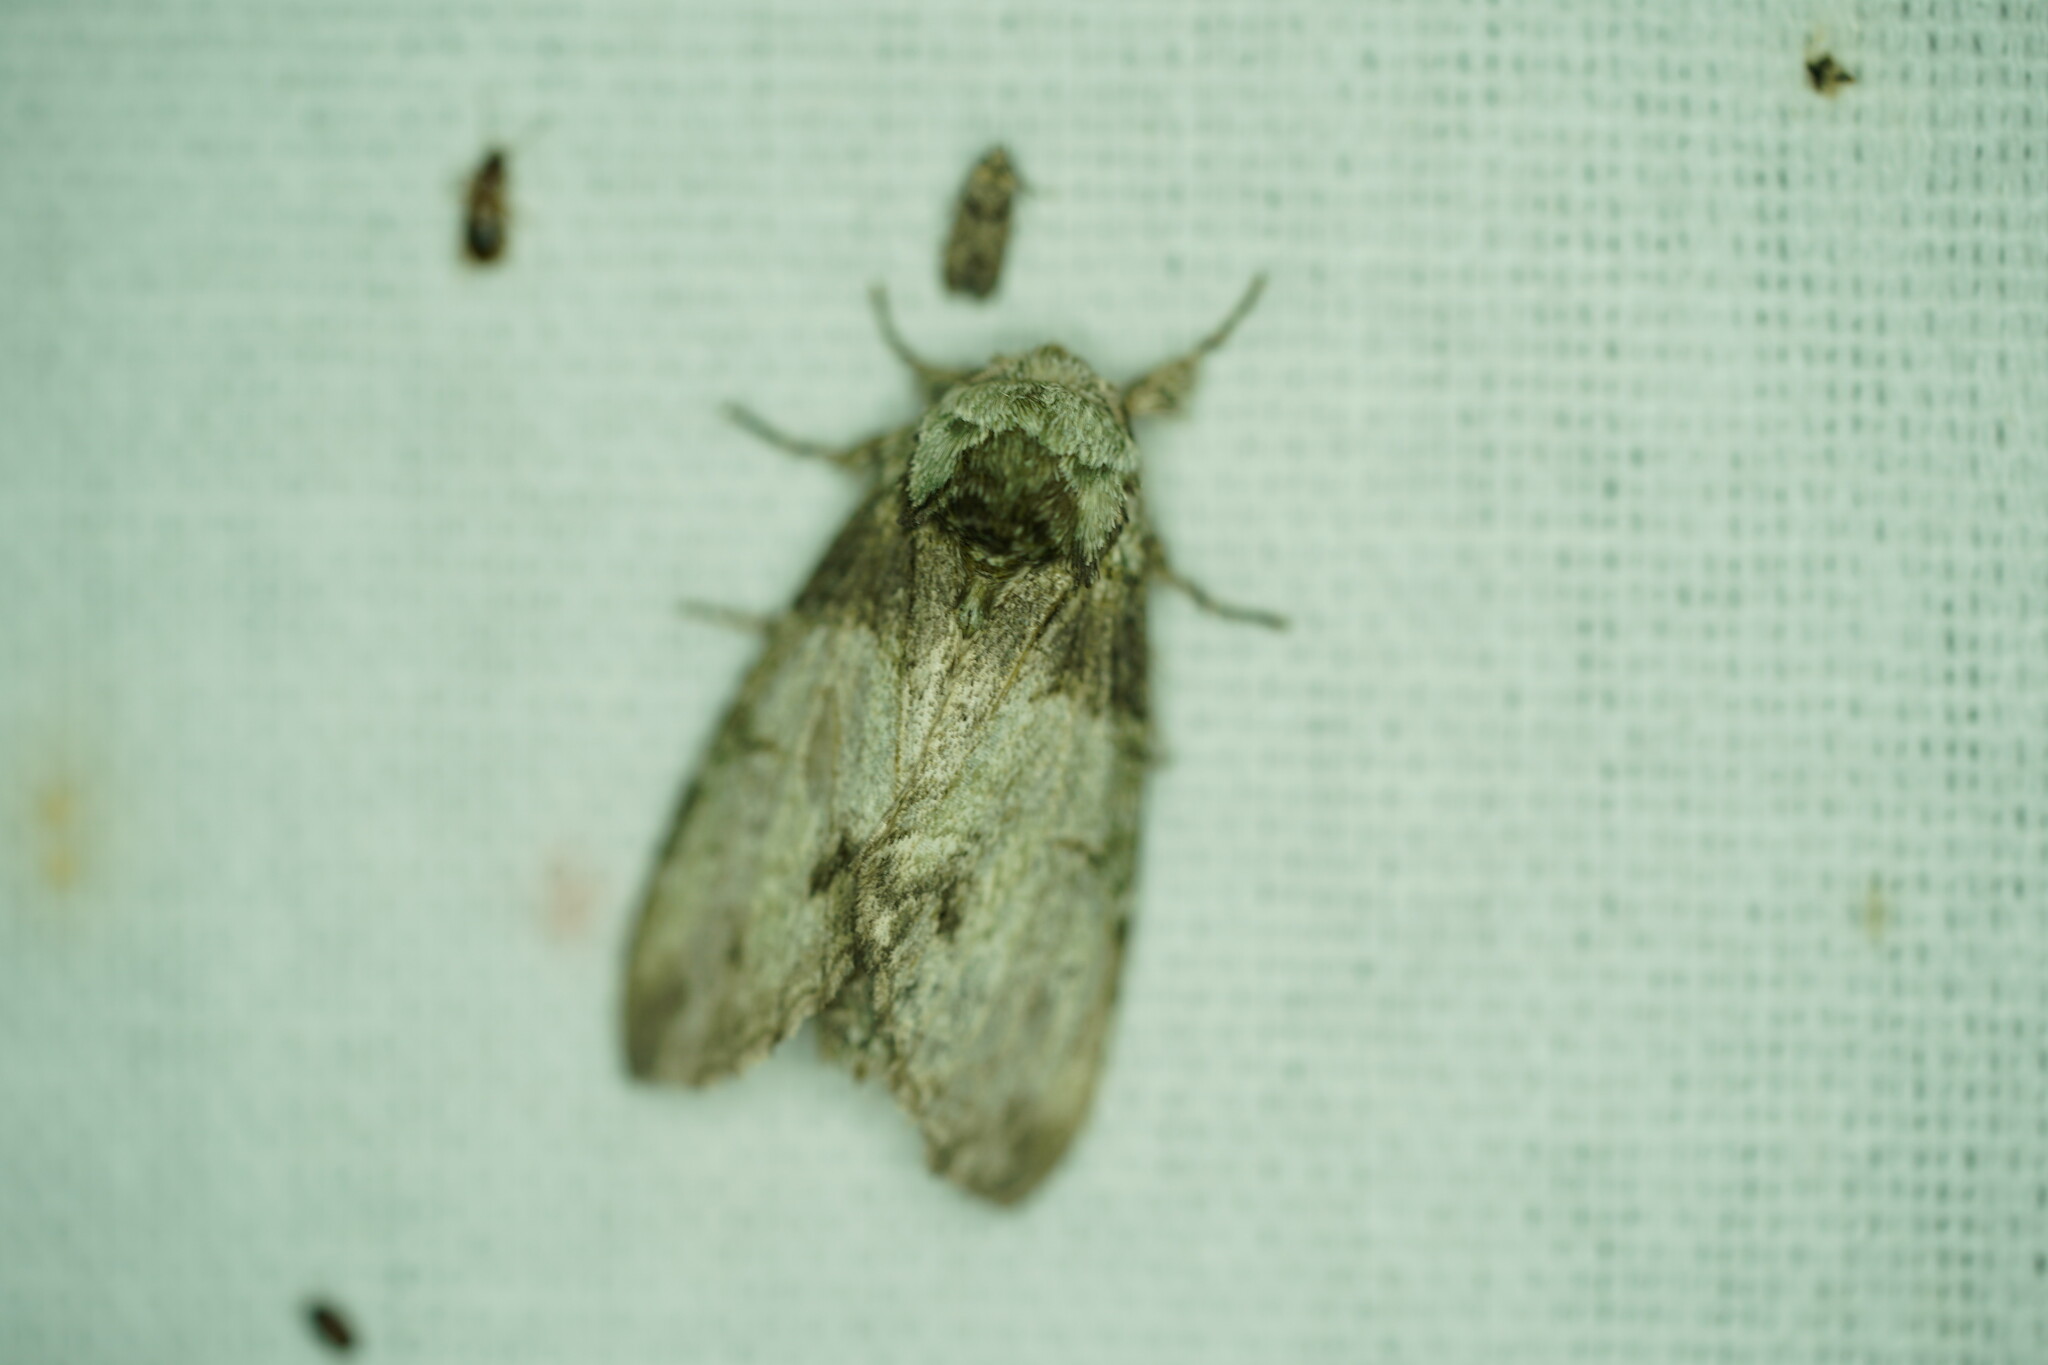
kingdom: Animalia
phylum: Arthropoda
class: Insecta
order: Lepidoptera
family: Notodontidae
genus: Macrurocampa
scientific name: Macrurocampa marthesia
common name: Mottled prominent
